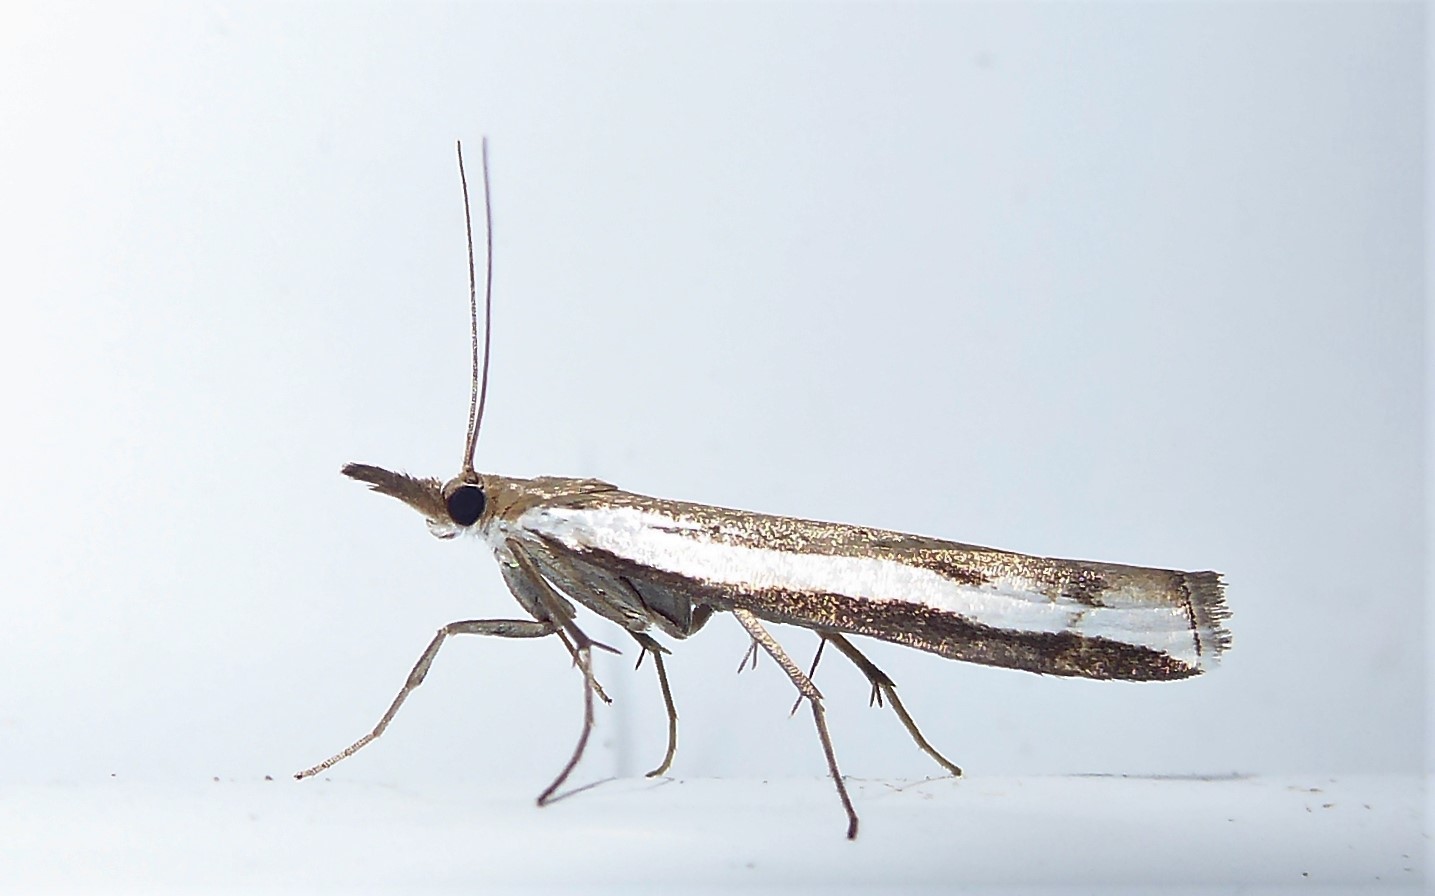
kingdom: Animalia
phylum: Arthropoda
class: Insecta
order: Lepidoptera
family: Crambidae
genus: Orocrambus
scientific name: Orocrambus flexuosellus
